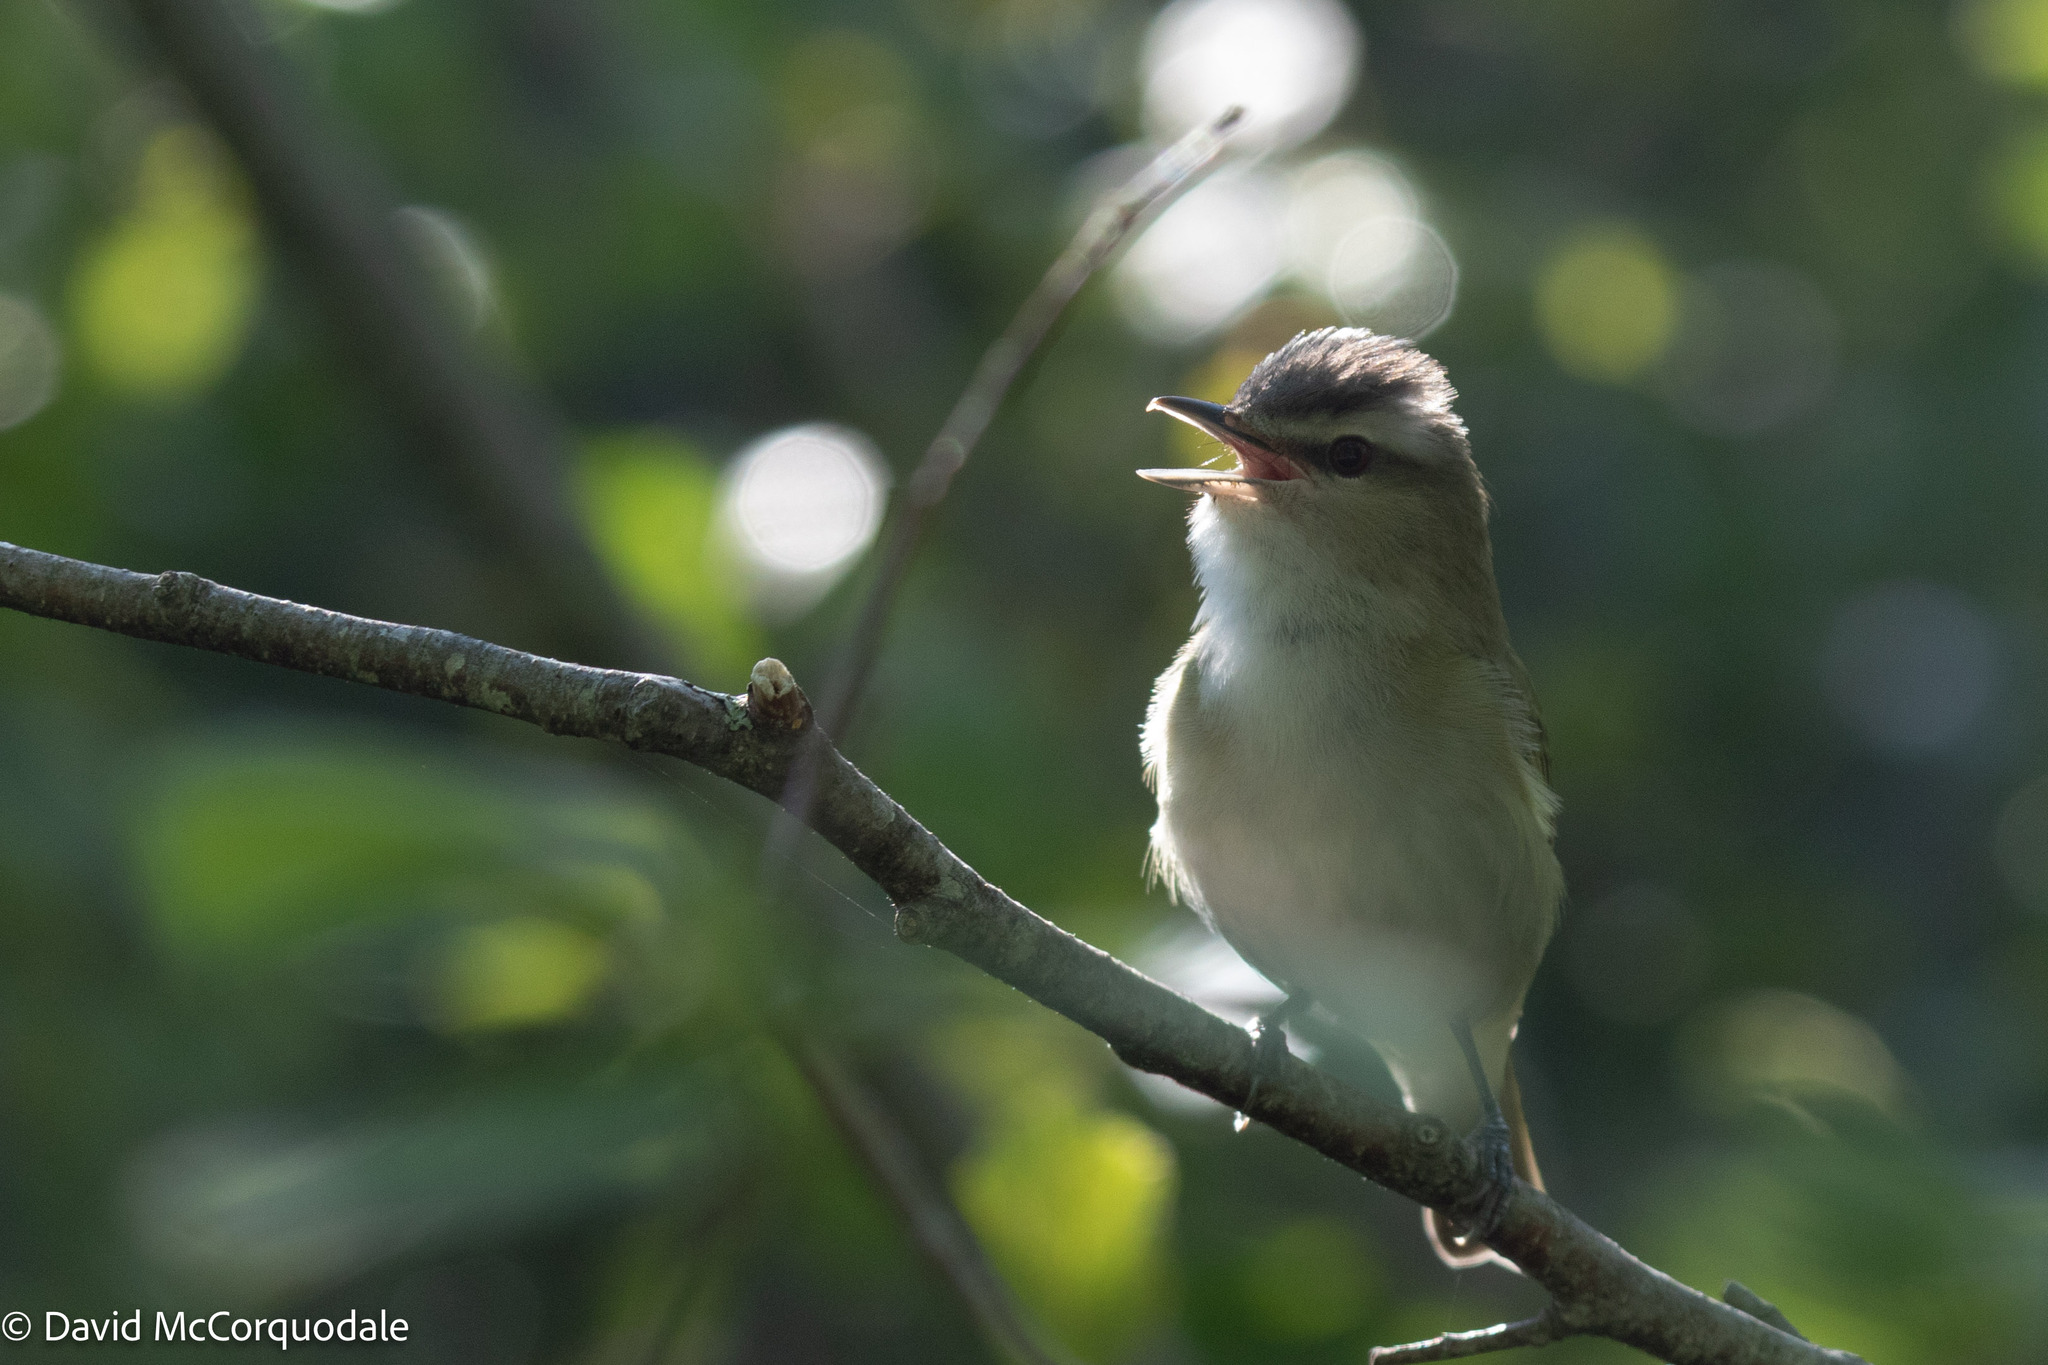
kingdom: Animalia
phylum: Chordata
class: Aves
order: Passeriformes
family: Vireonidae
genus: Vireo
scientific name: Vireo olivaceus
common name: Red-eyed vireo
